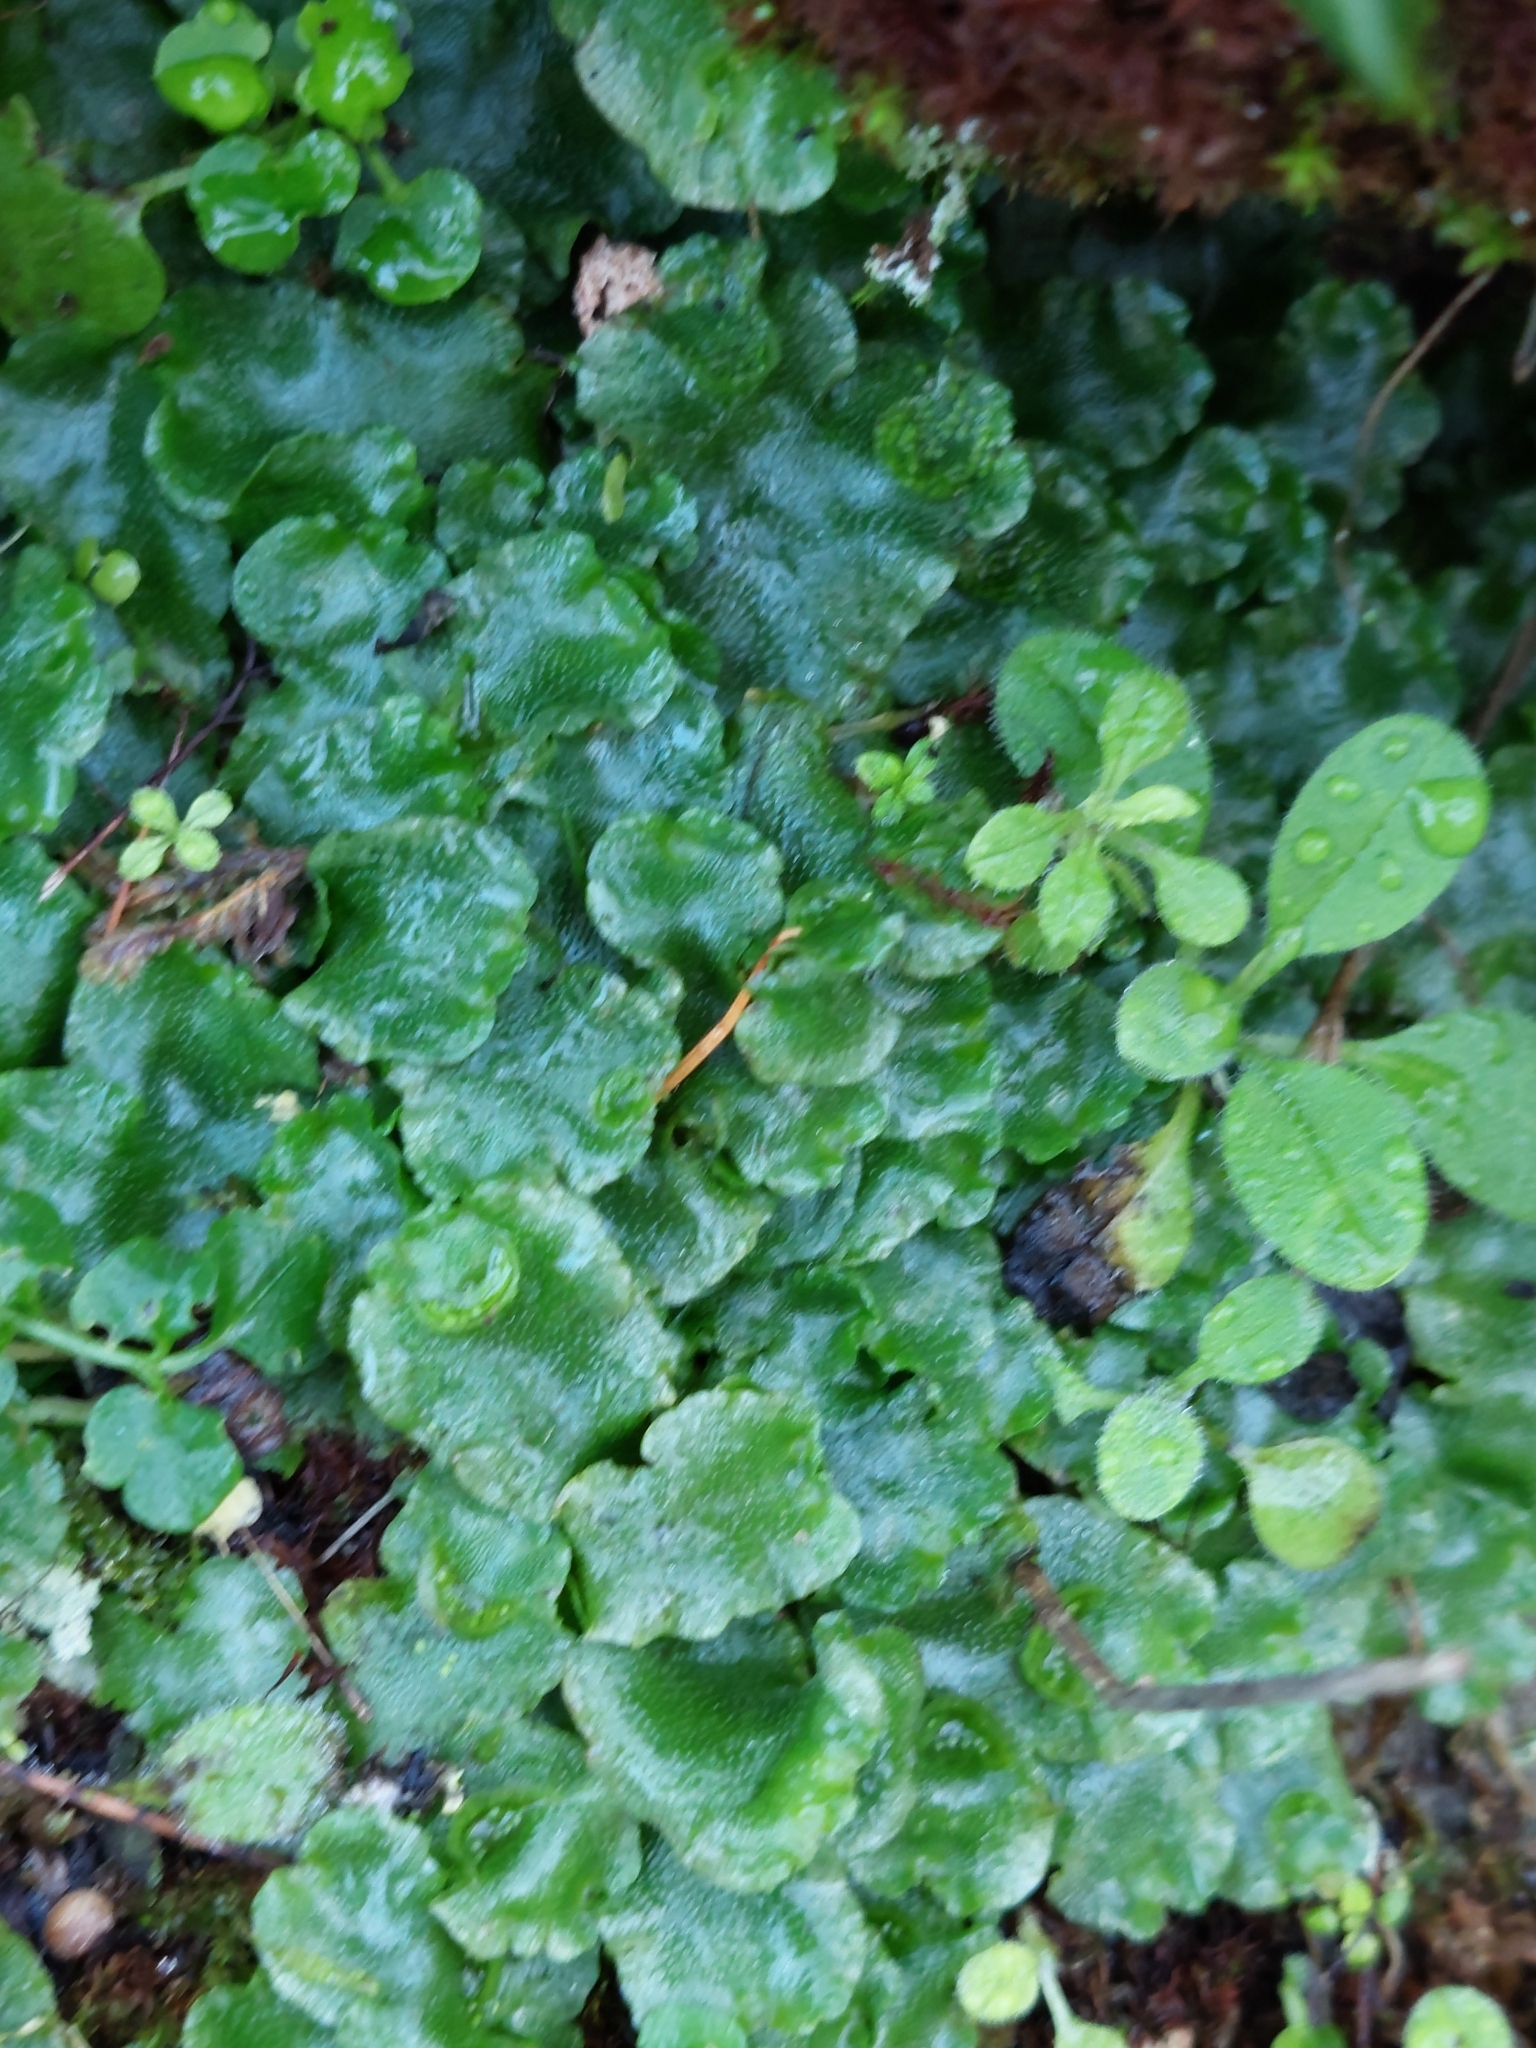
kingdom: Plantae
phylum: Marchantiophyta
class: Marchantiopsida
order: Lunulariales
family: Lunulariaceae
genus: Lunularia
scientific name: Lunularia cruciata
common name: Crescent-cup liverwort
